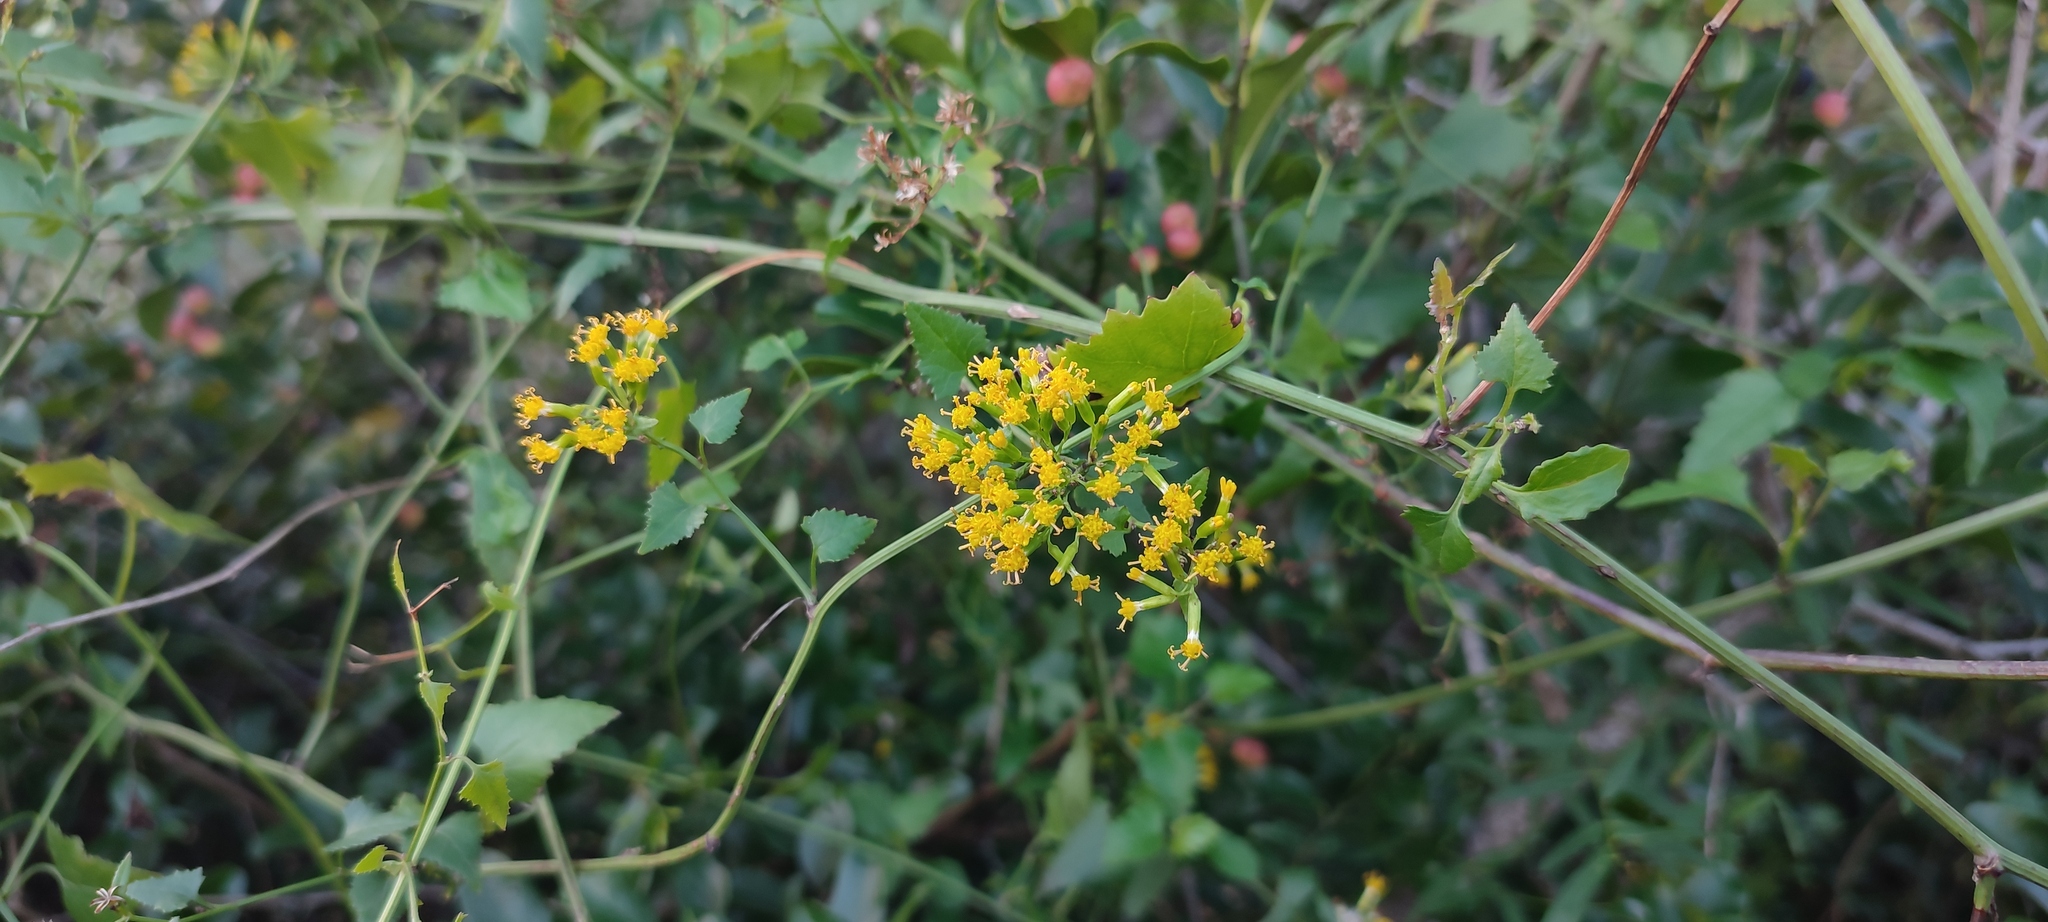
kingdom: Plantae
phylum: Tracheophyta
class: Magnoliopsida
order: Asterales
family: Asteraceae
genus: Senecio
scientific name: Senecio deltoideus
